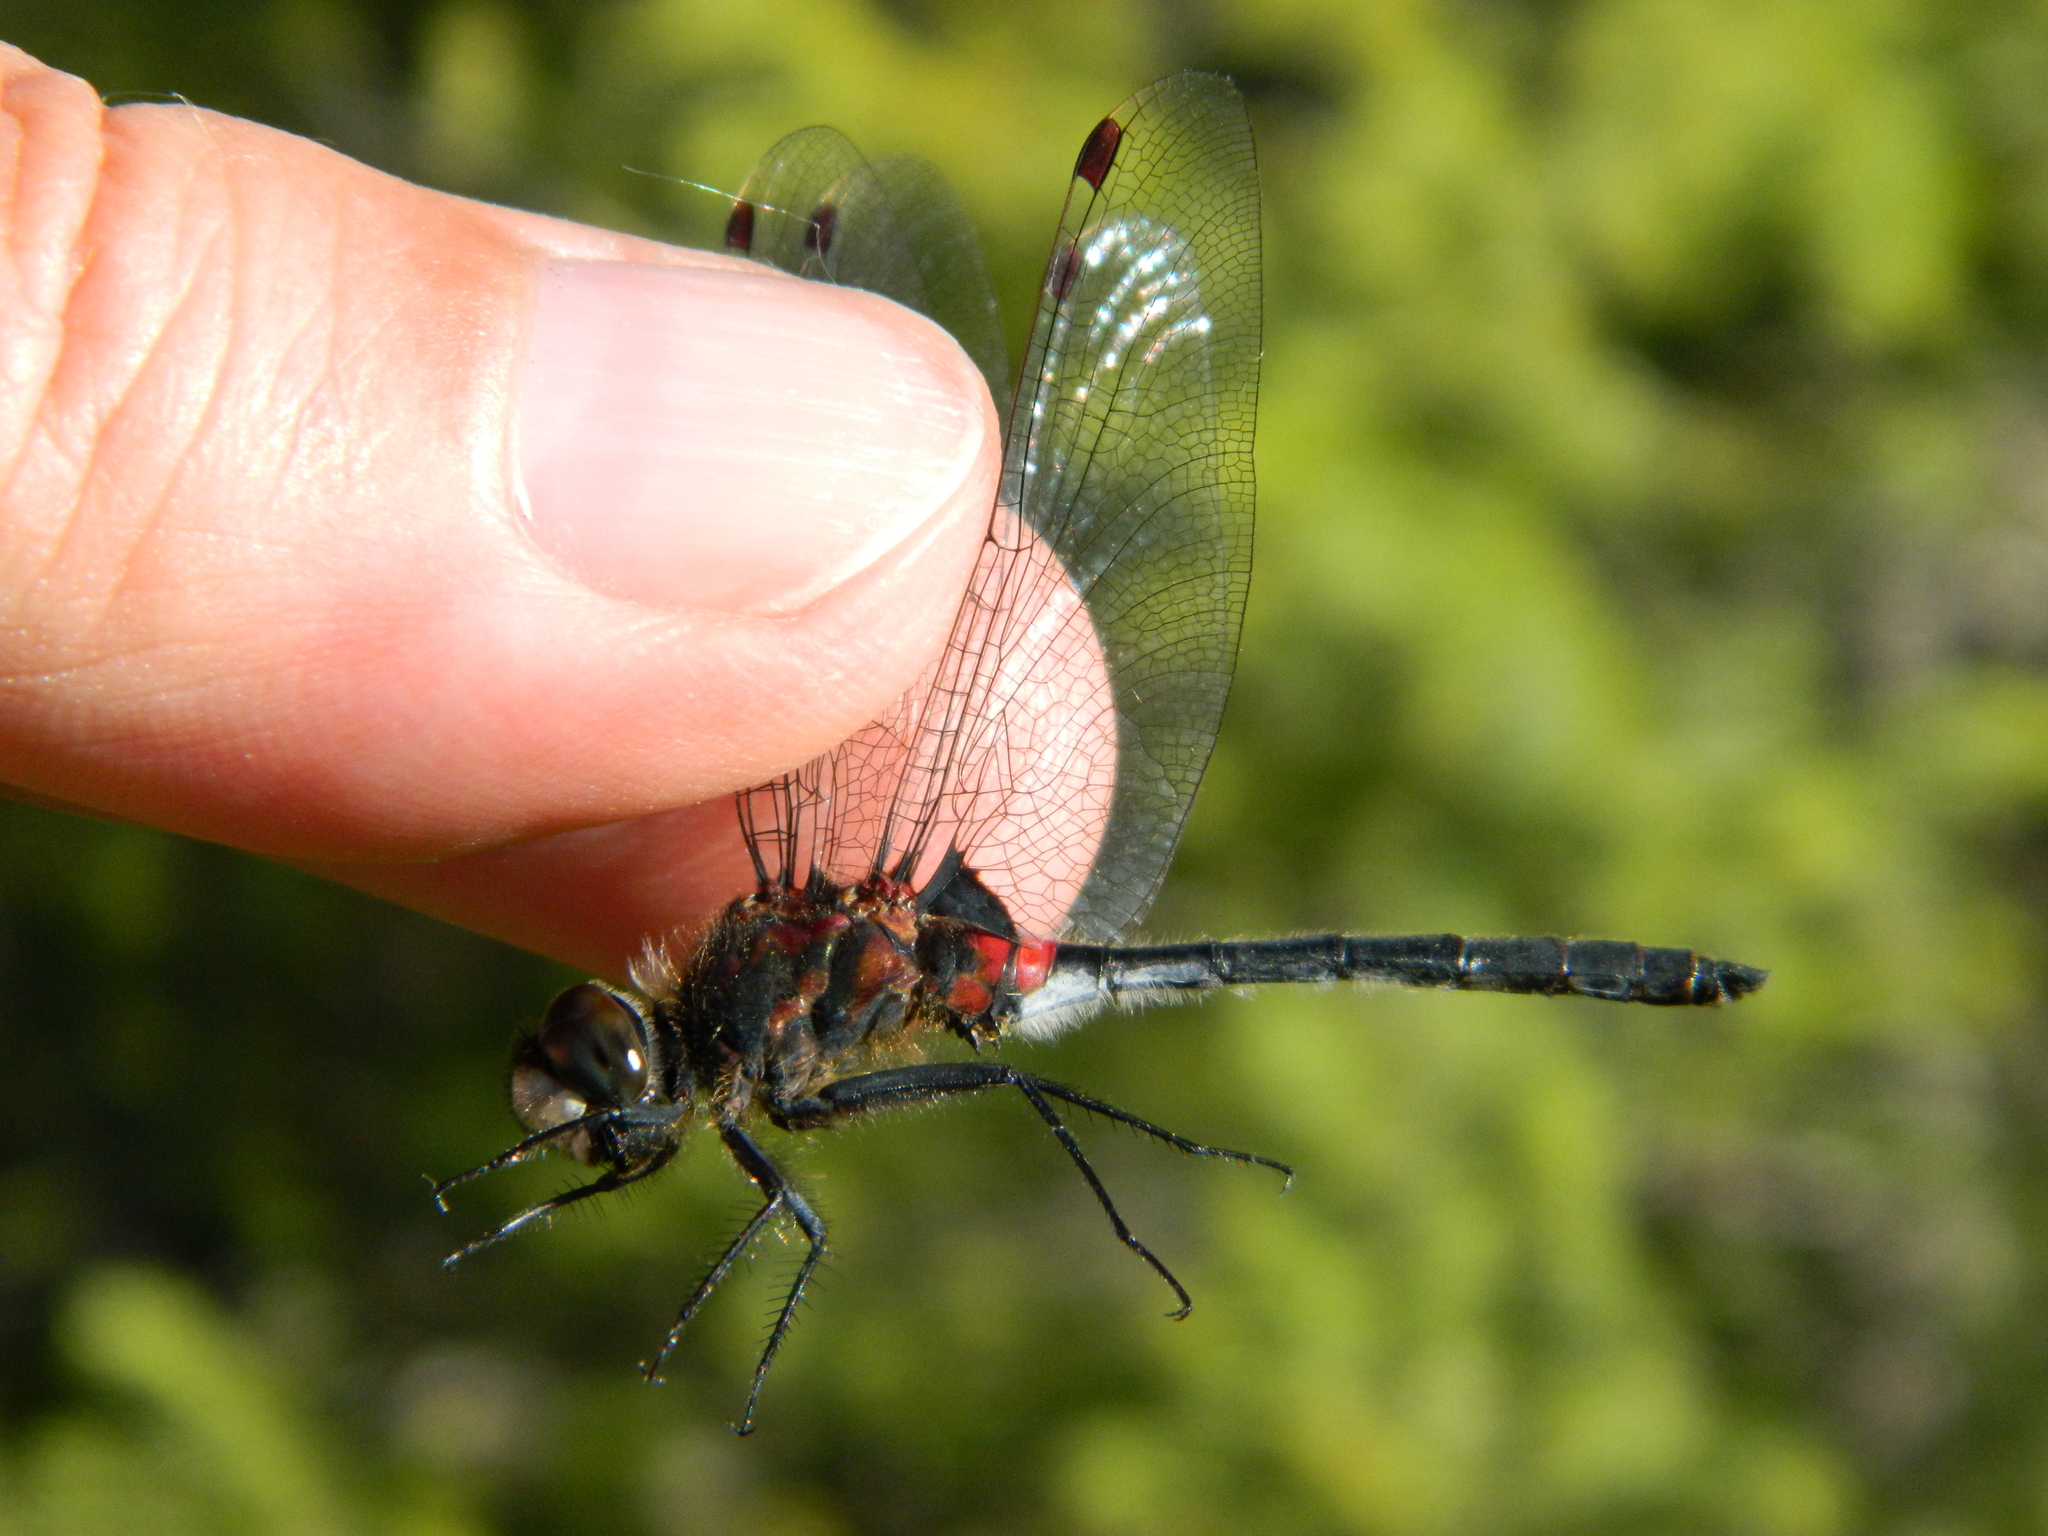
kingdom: Animalia
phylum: Arthropoda
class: Insecta
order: Odonata
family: Libellulidae
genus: Leucorrhinia
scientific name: Leucorrhinia glacialis
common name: Crimson-ringed whiteface
